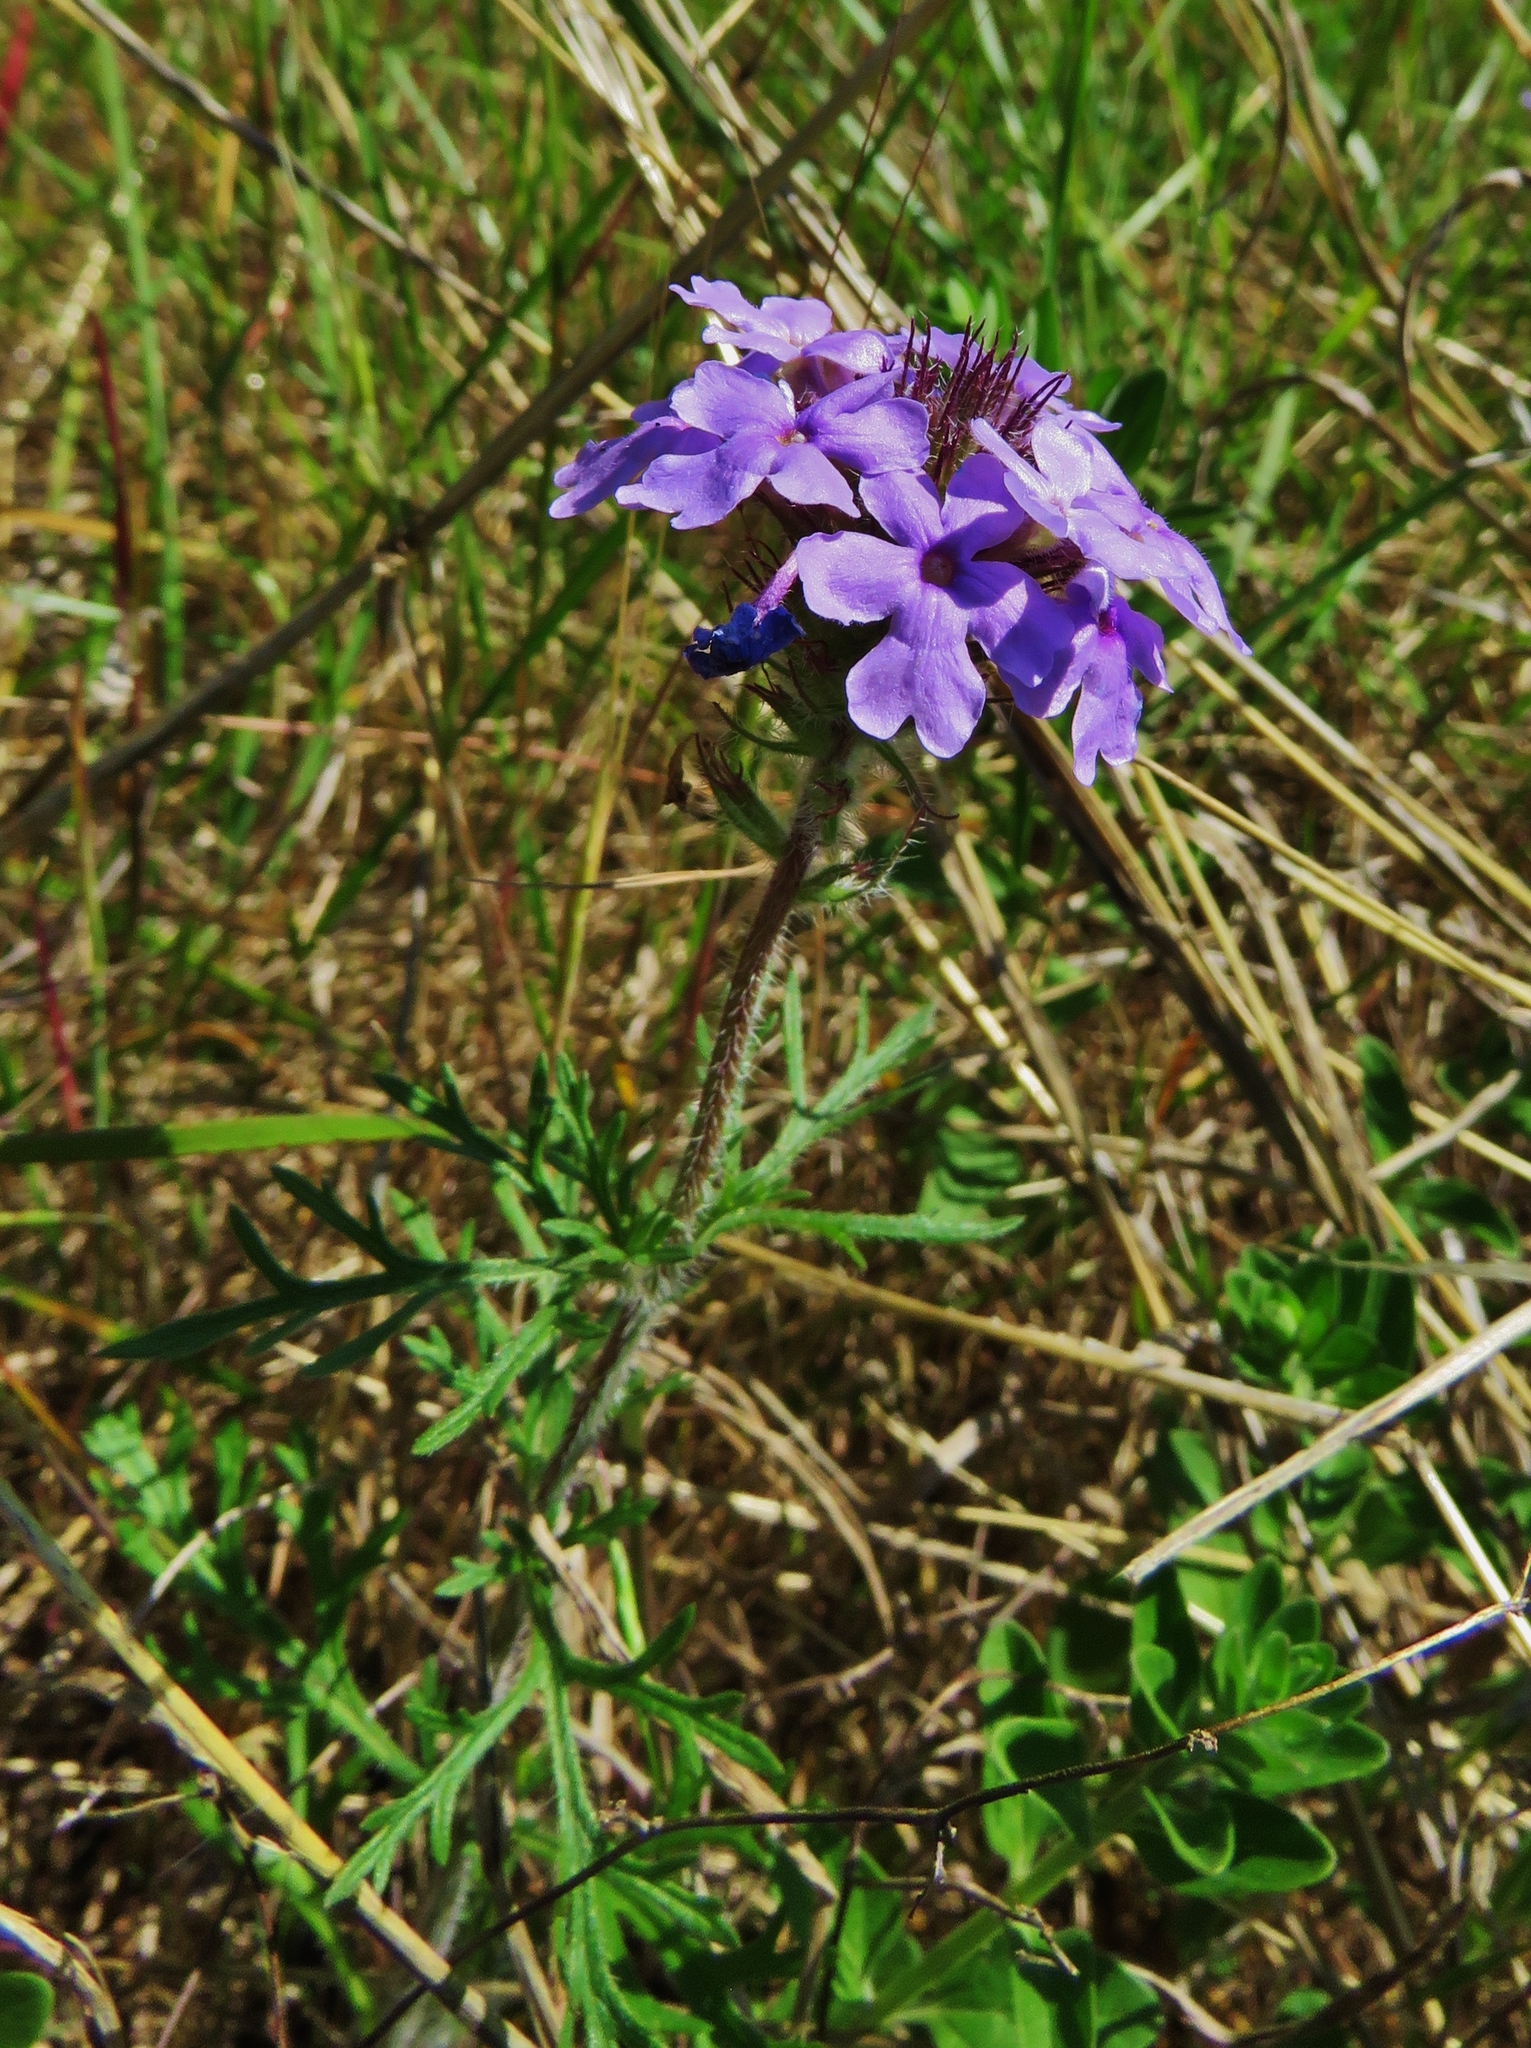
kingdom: Plantae
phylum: Tracheophyta
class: Magnoliopsida
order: Lamiales
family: Verbenaceae
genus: Verbena
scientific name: Verbena bipinnatifida
